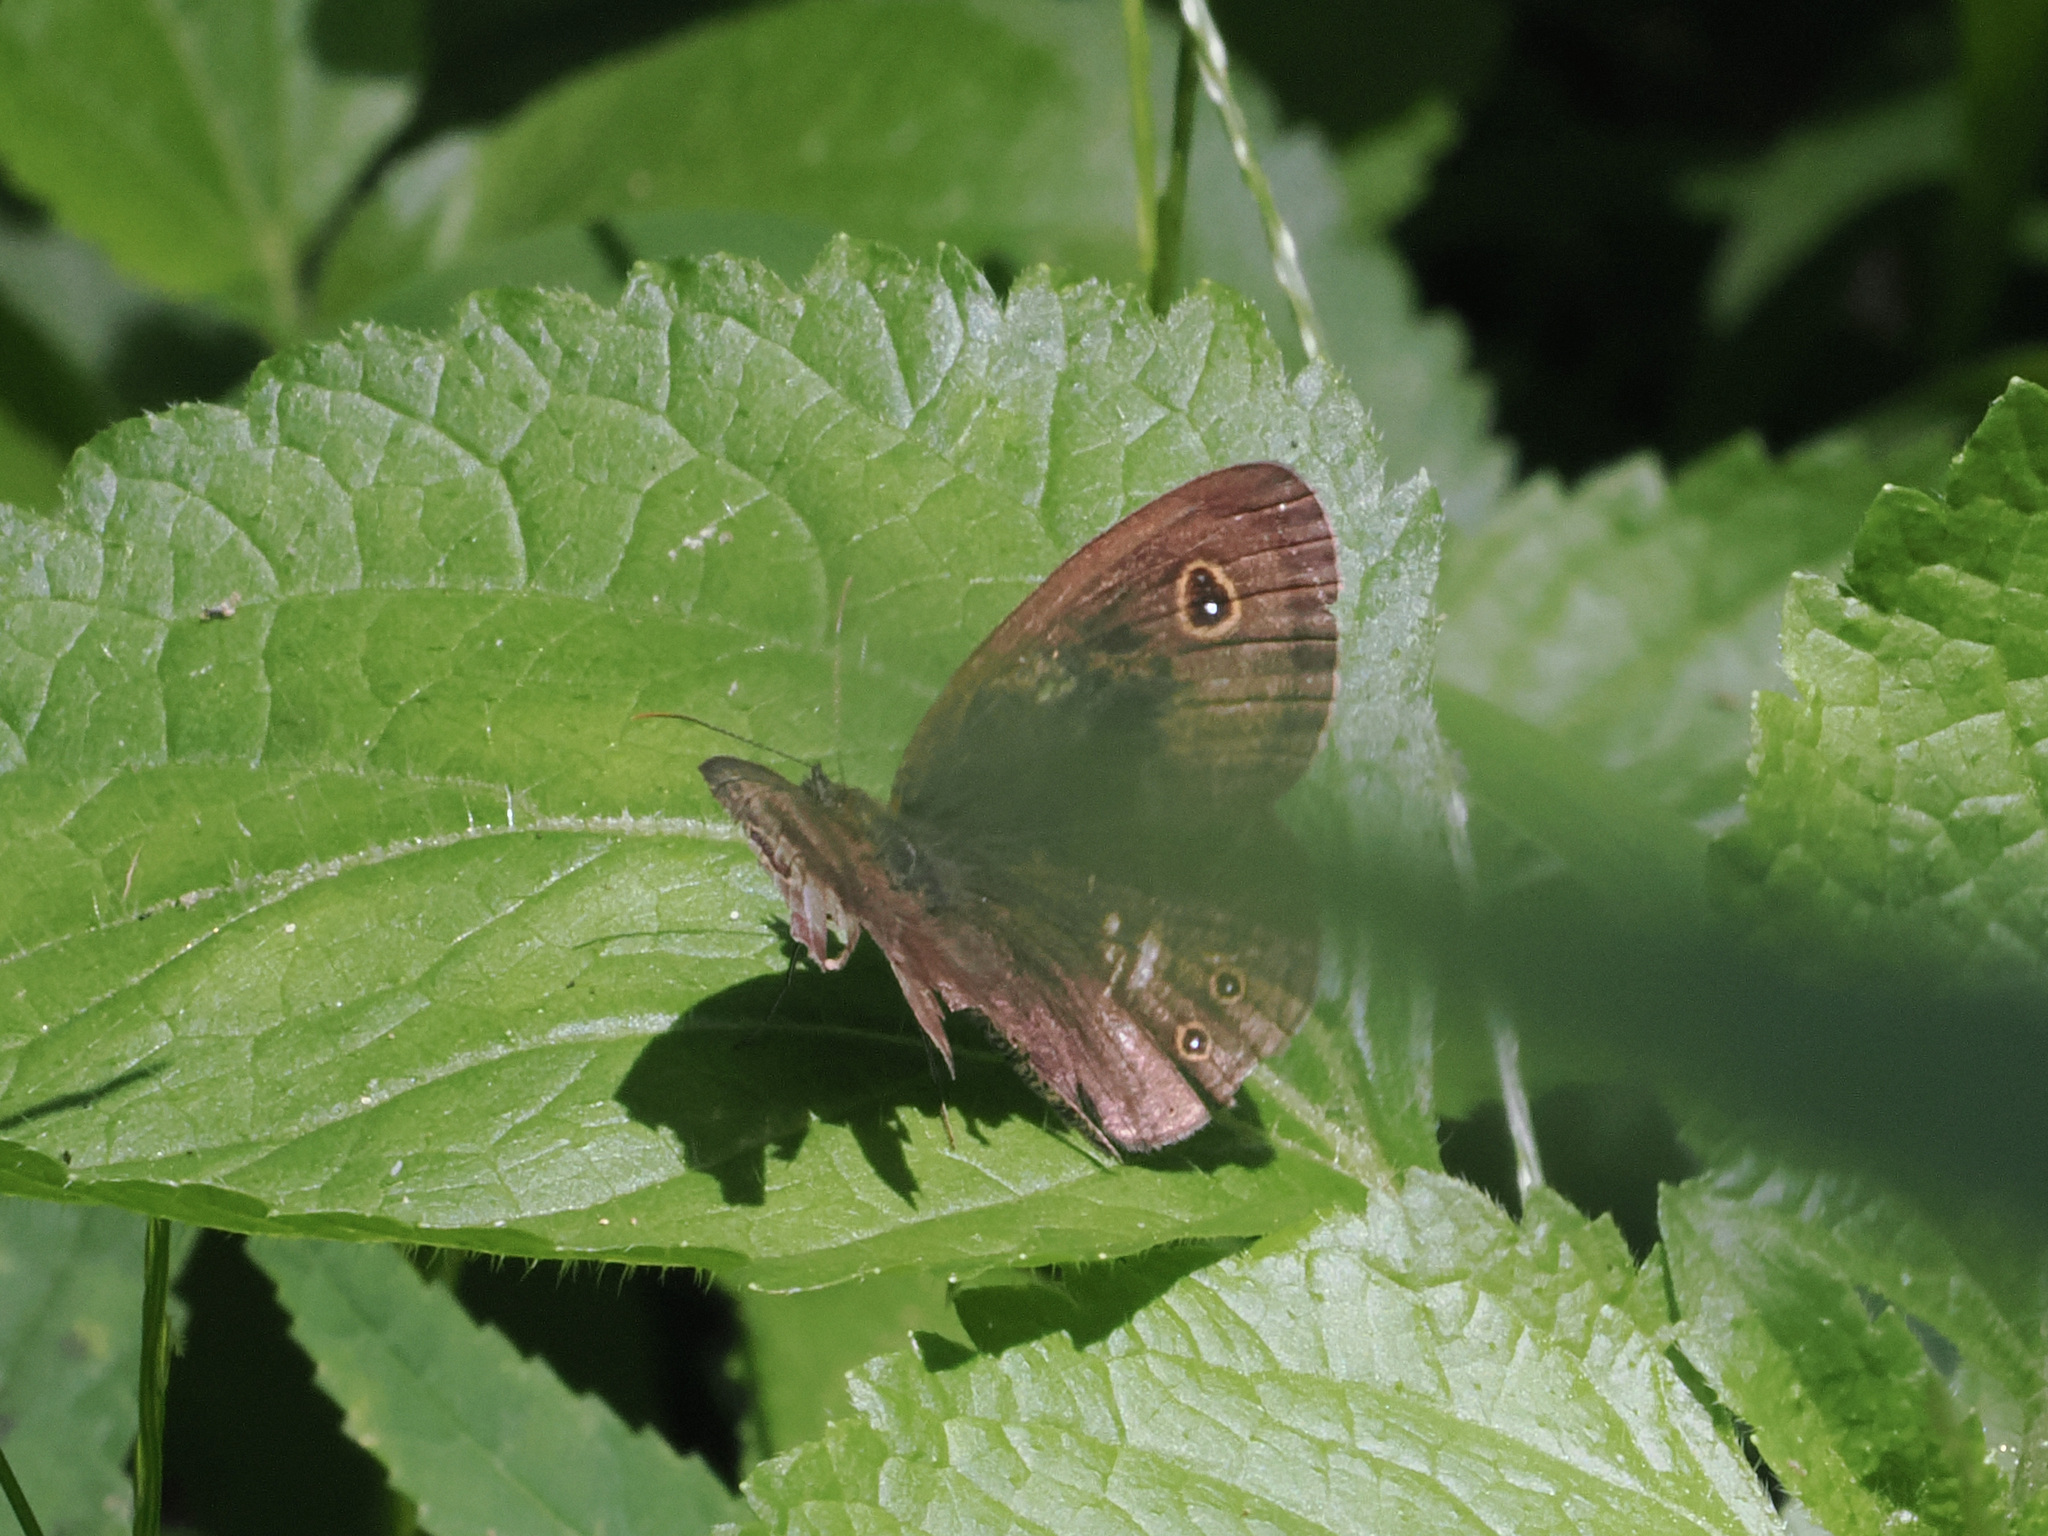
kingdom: Animalia
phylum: Arthropoda
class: Insecta
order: Lepidoptera
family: Nymphalidae
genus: Ypthima
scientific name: Ypthima nigricans
